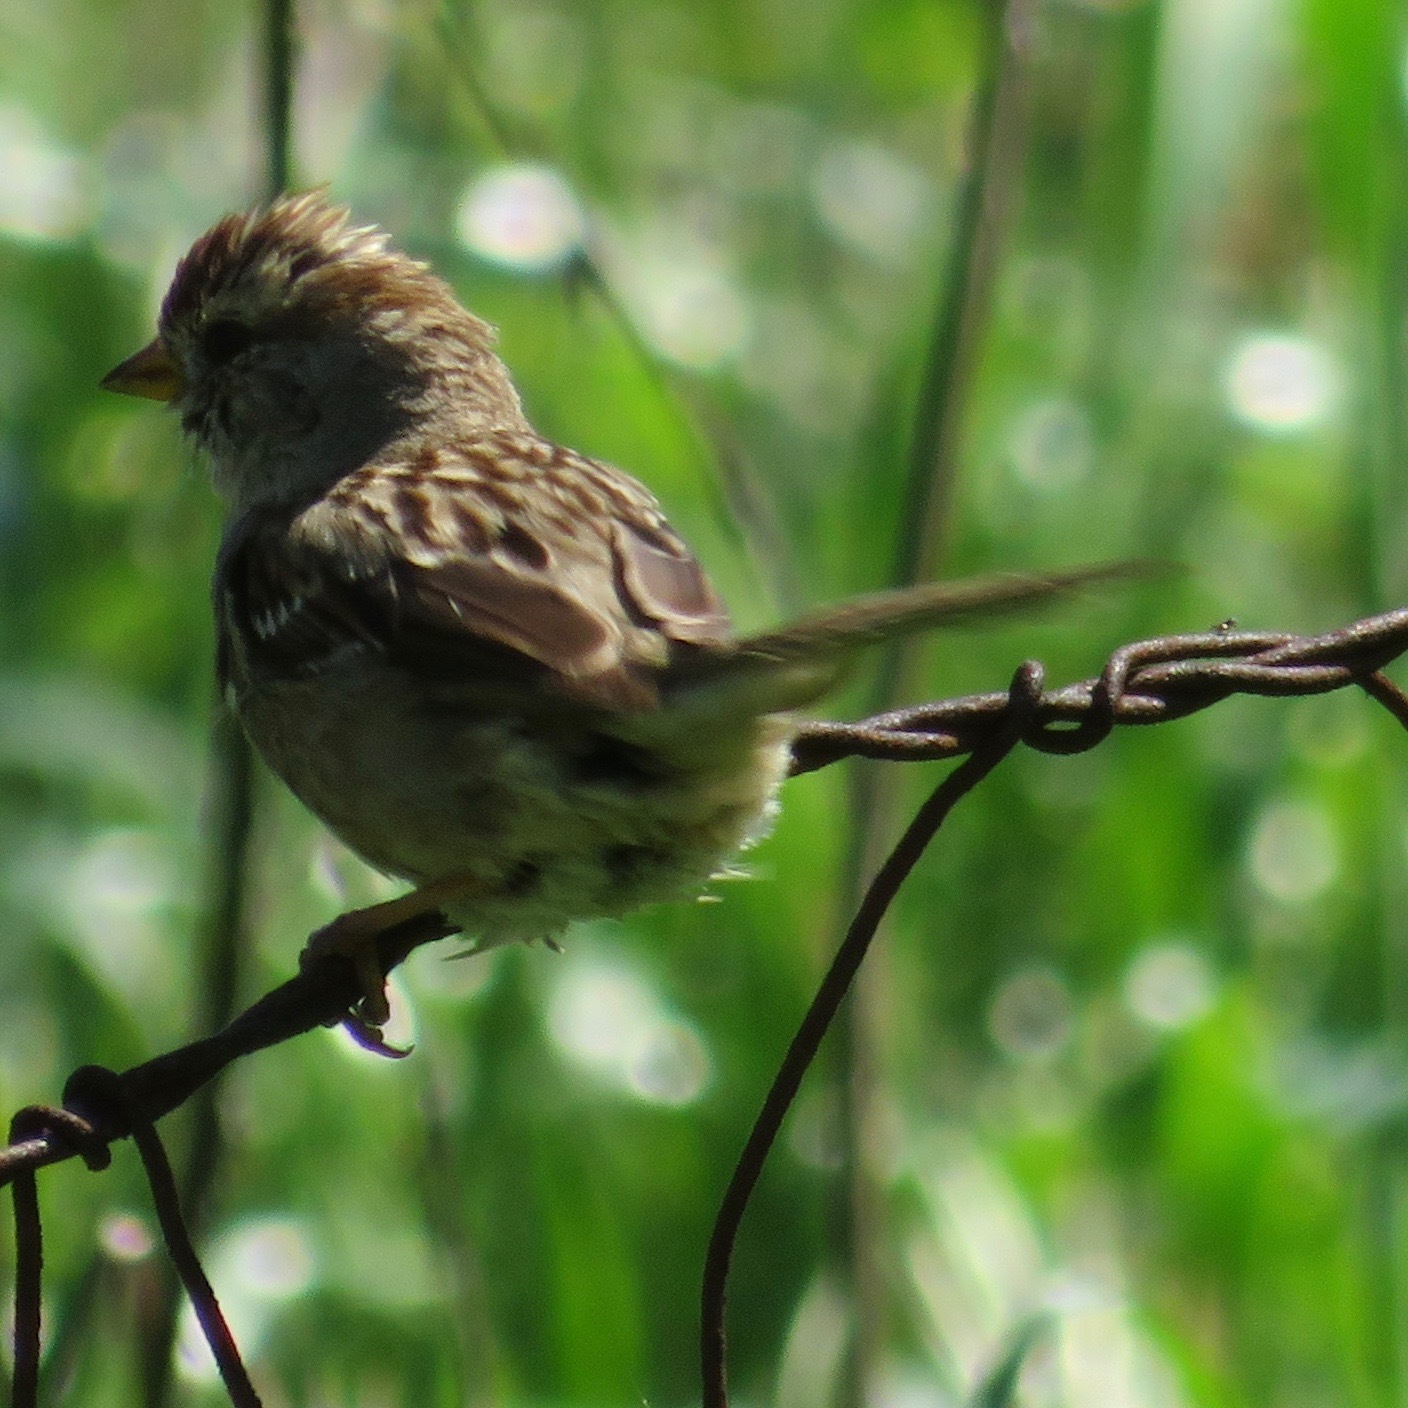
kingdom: Animalia
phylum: Chordata
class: Aves
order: Passeriformes
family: Passerellidae
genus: Zonotrichia
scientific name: Zonotrichia leucophrys
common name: White-crowned sparrow
